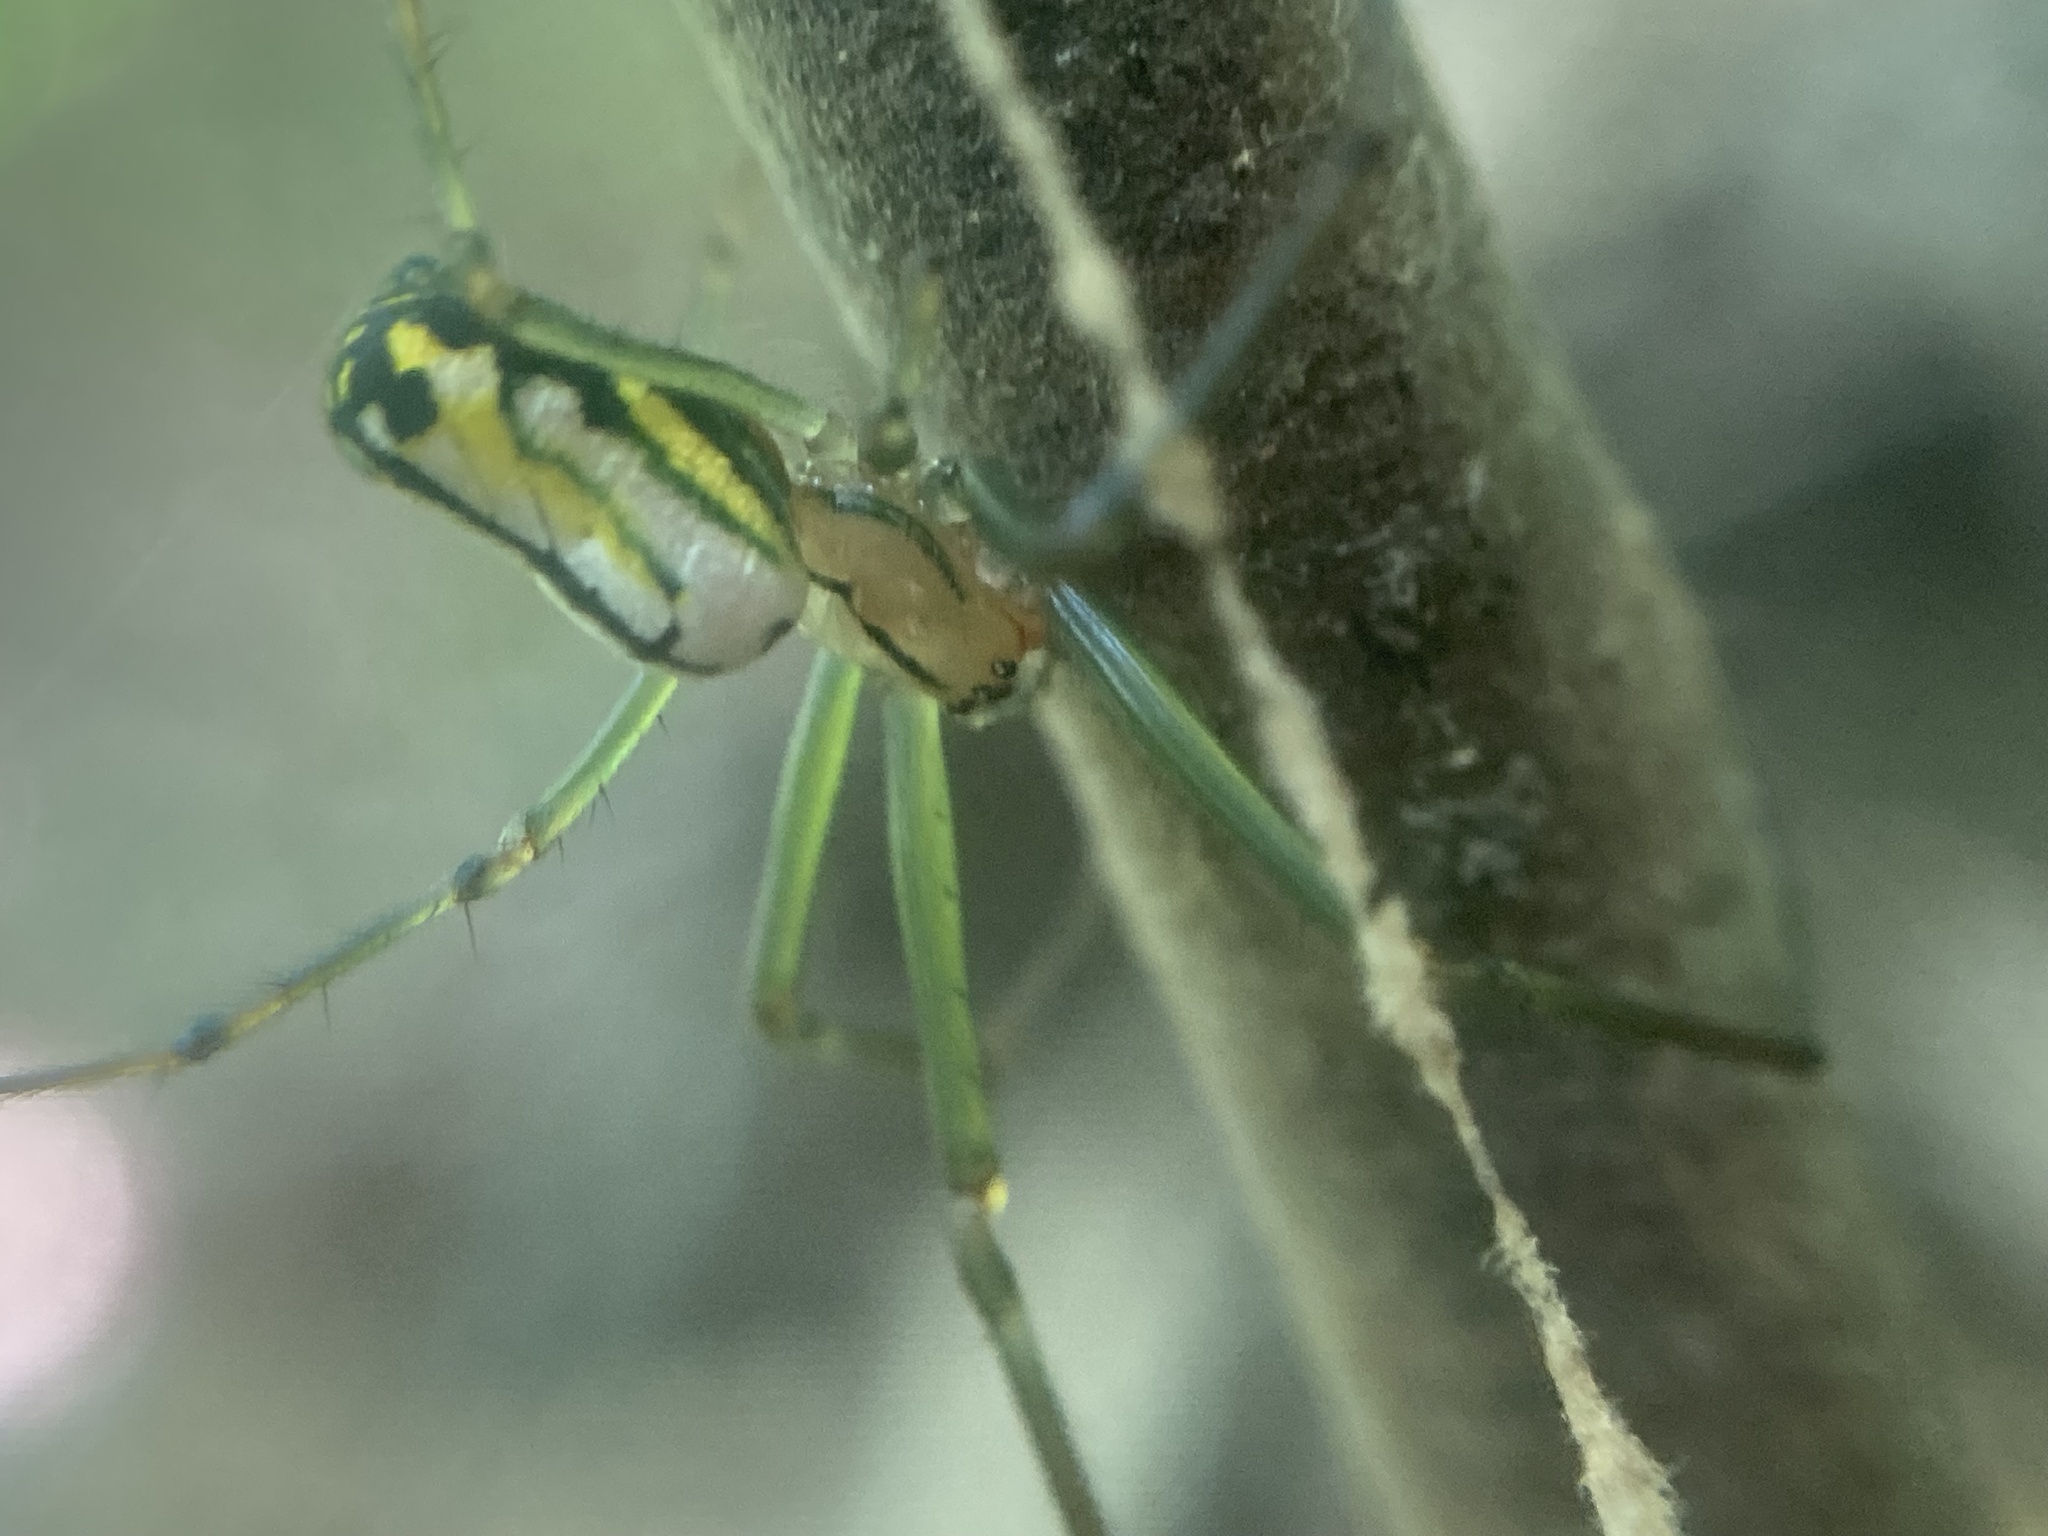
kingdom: Animalia
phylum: Arthropoda
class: Arachnida
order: Araneae
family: Tetragnathidae
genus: Leucauge
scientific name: Leucauge venusta
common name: Longjawed orb weavers
